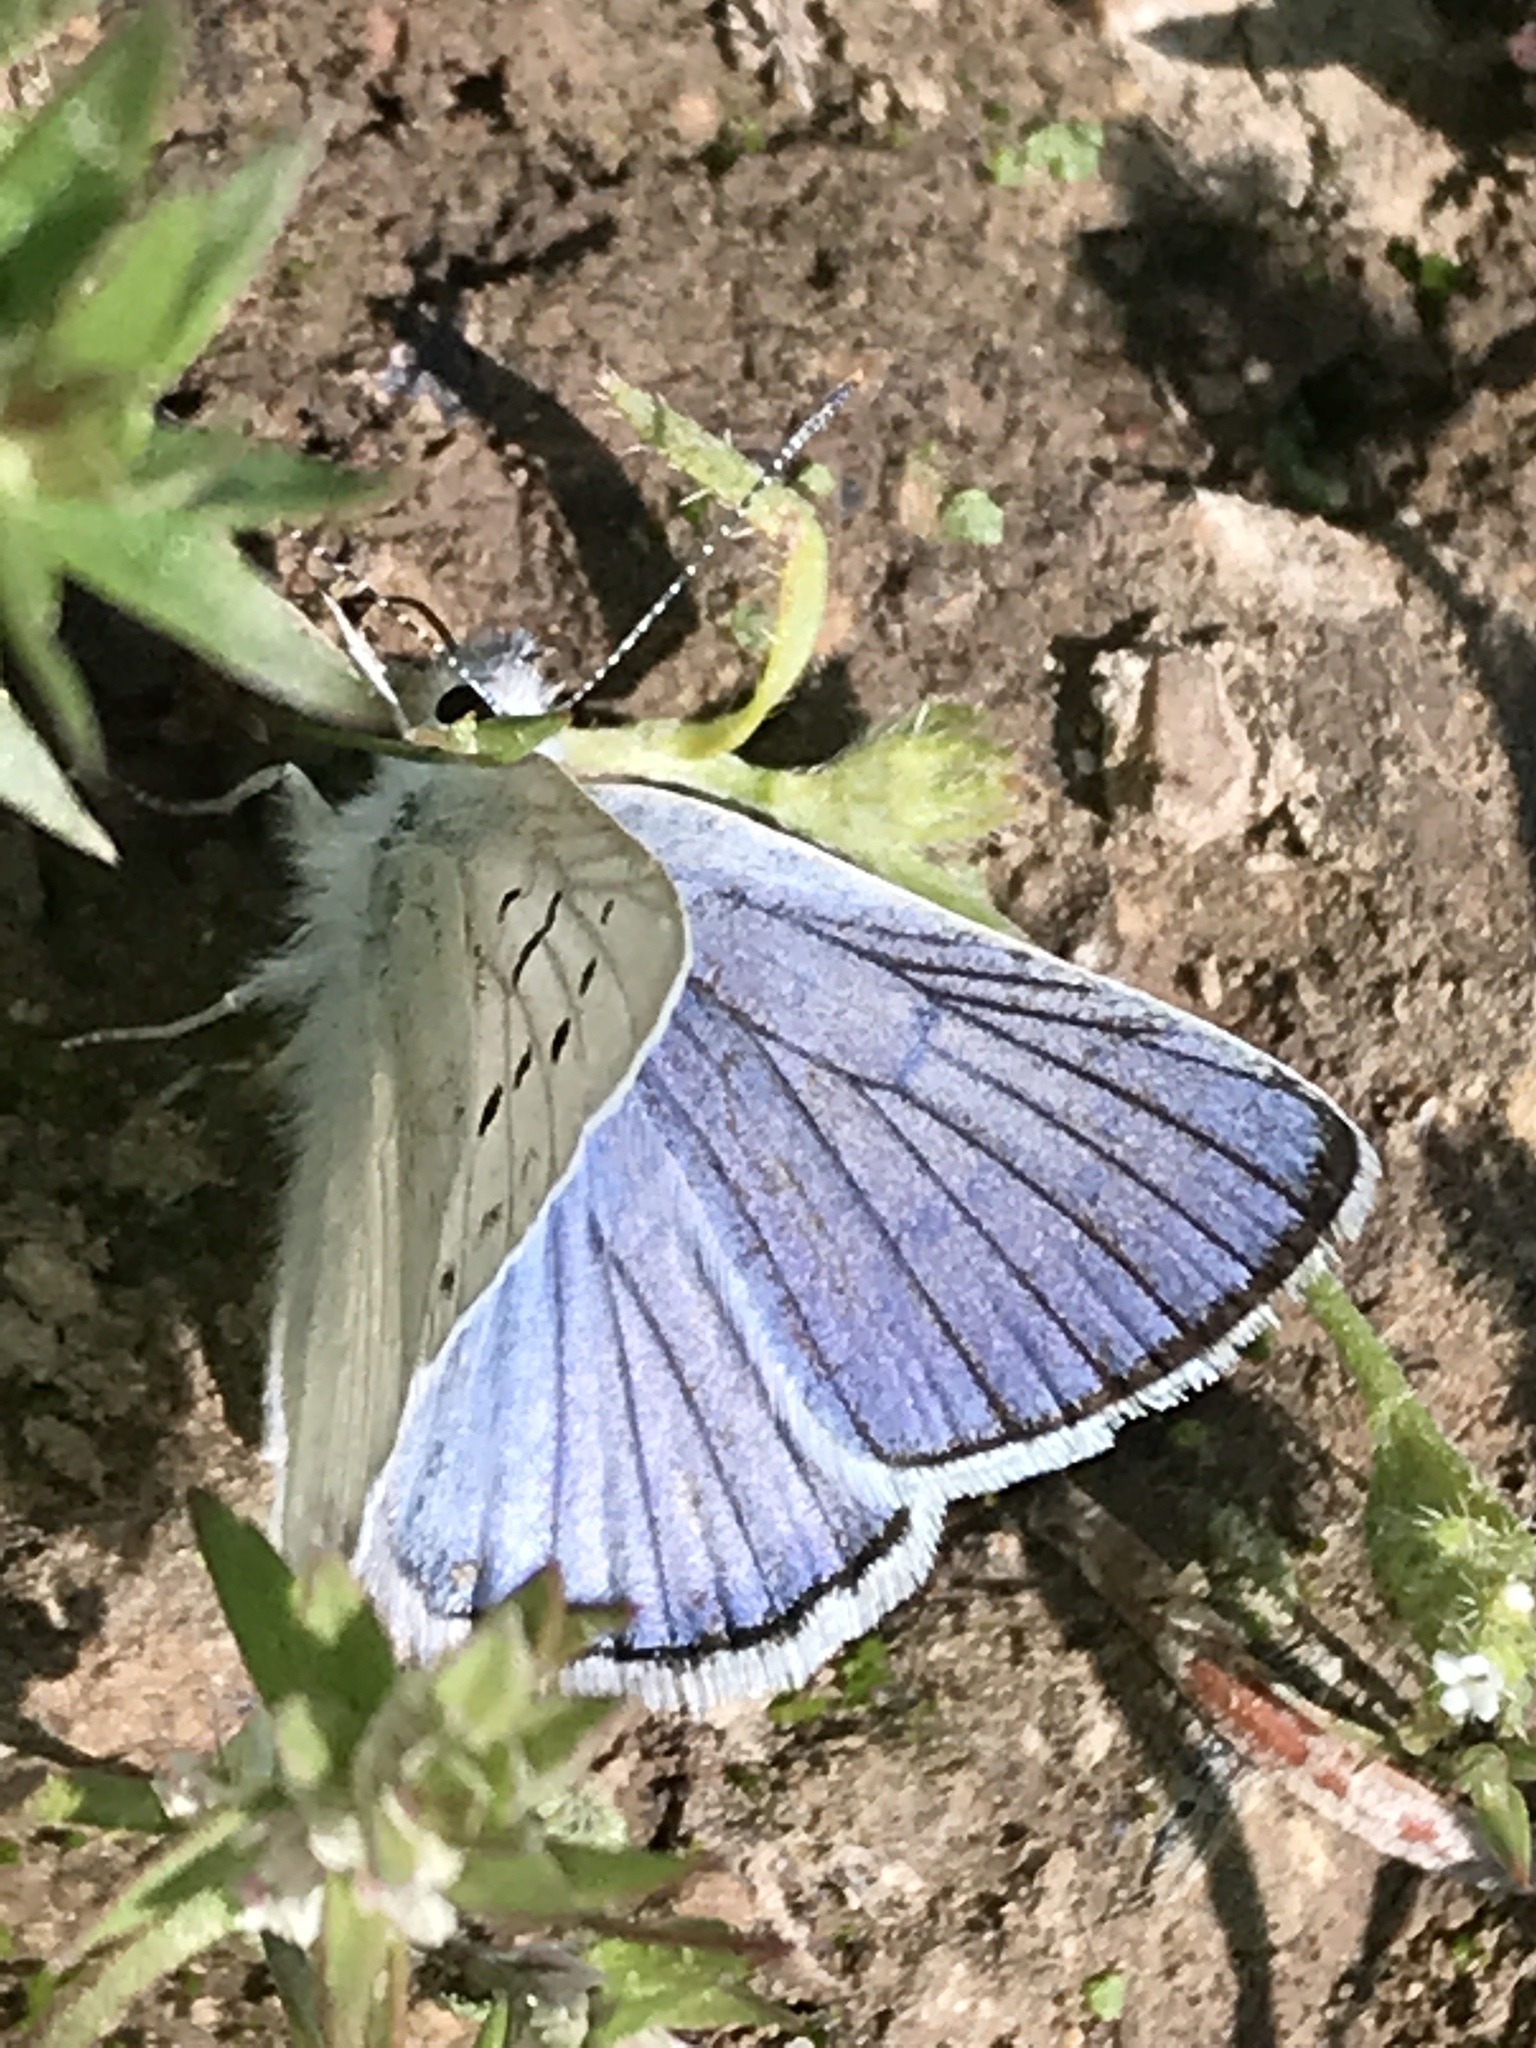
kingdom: Animalia
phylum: Arthropoda
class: Insecta
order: Lepidoptera
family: Lycaenidae
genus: Tharsalea
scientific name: Tharsalea heteronea
